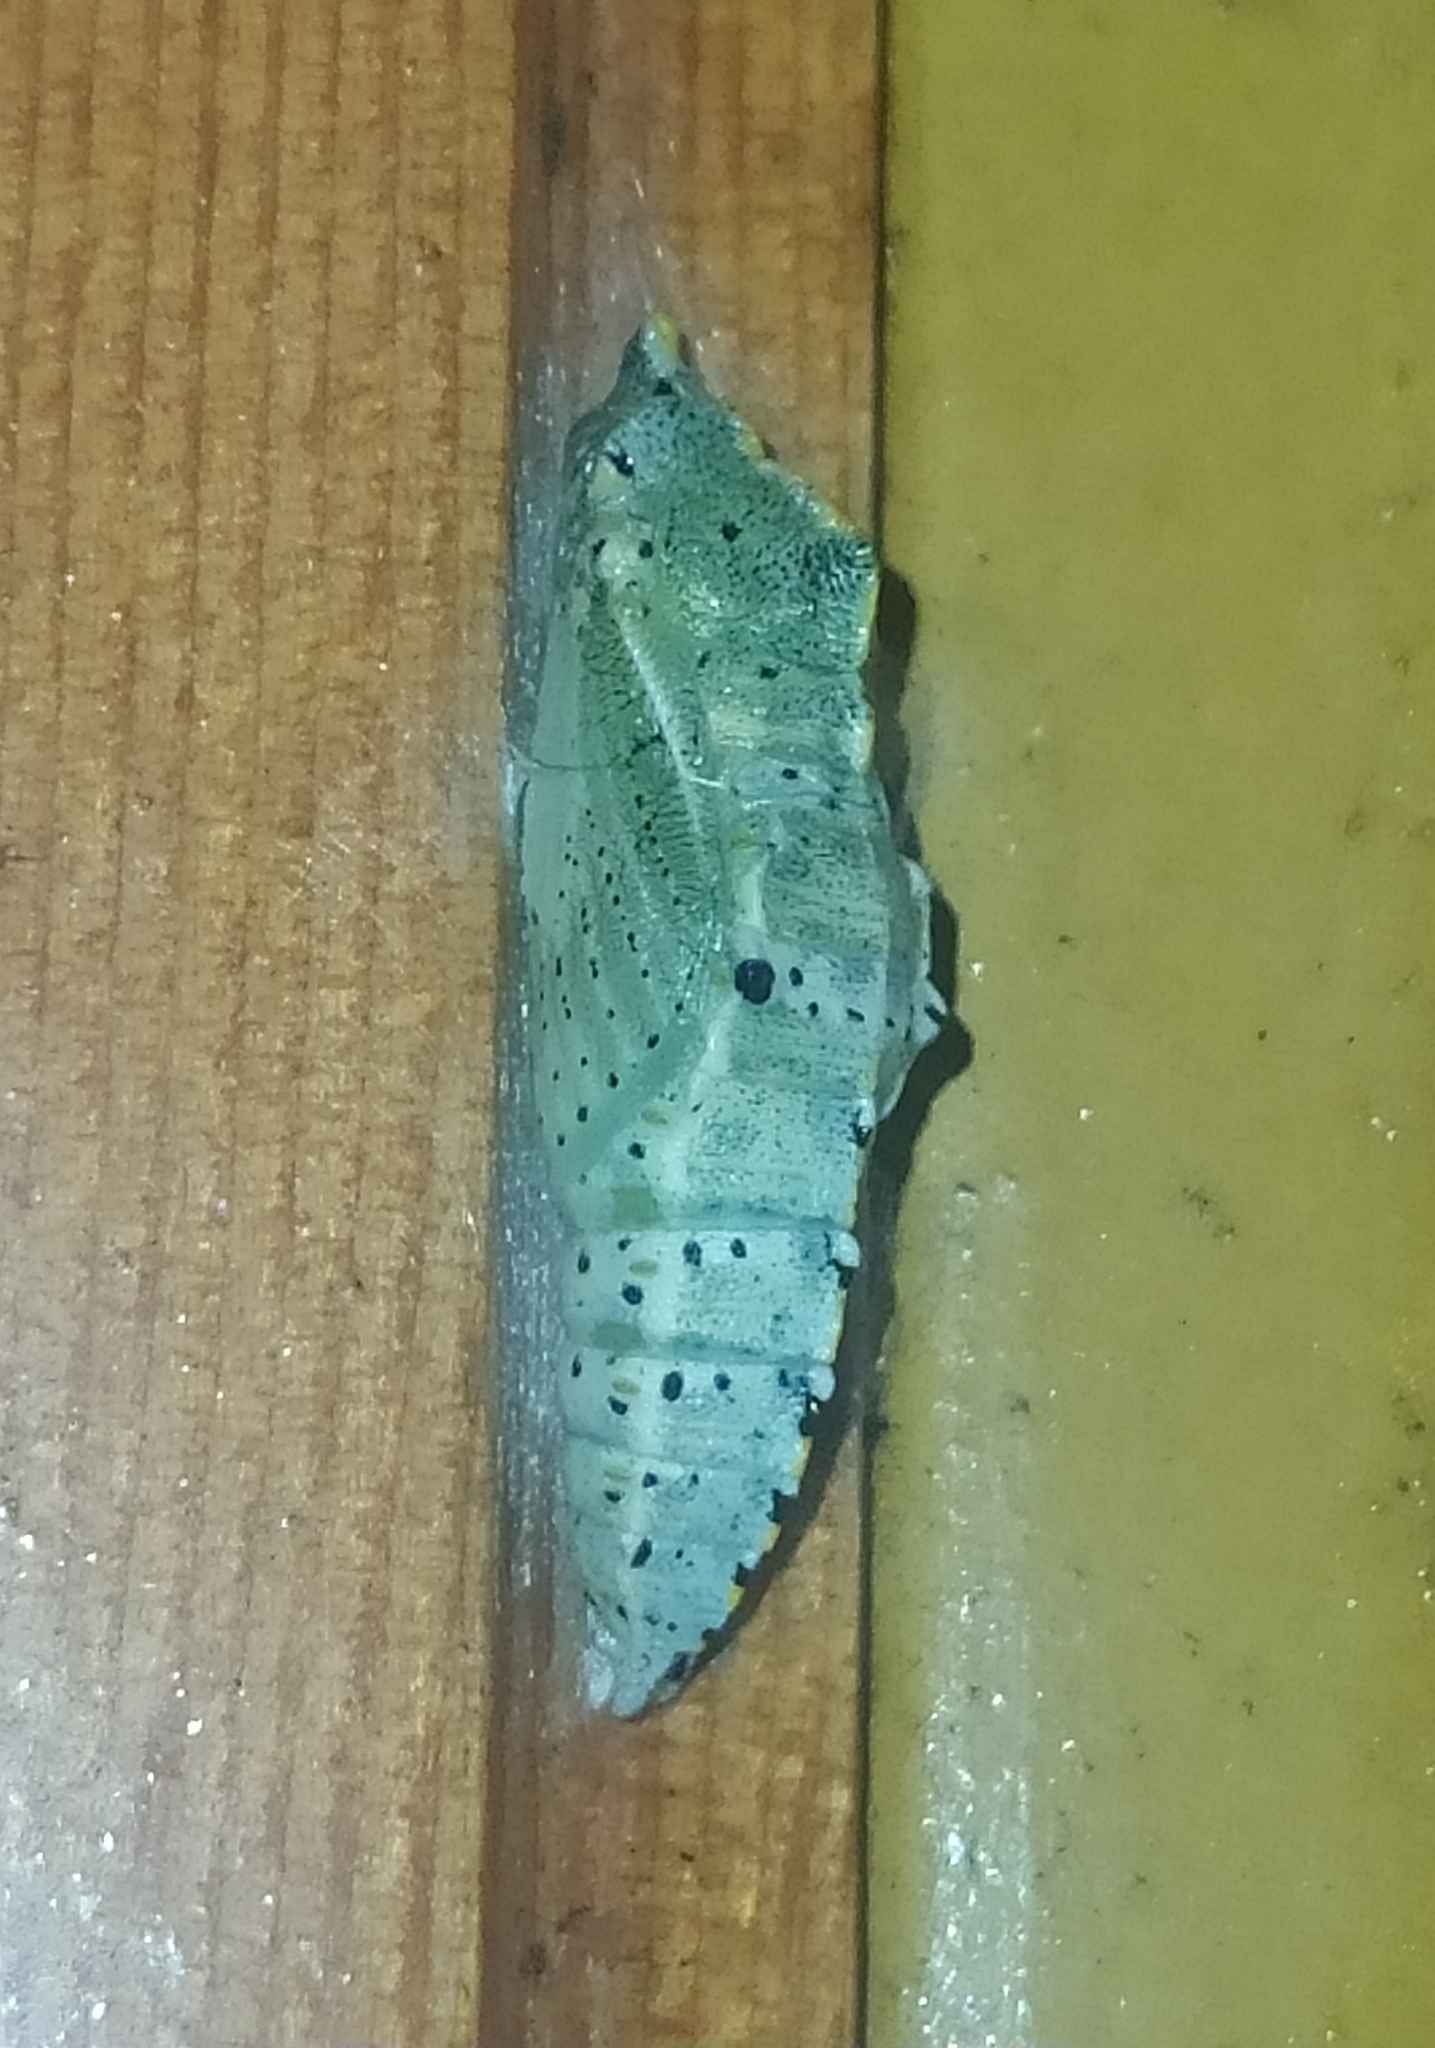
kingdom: Animalia
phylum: Arthropoda
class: Insecta
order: Lepidoptera
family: Pieridae
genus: Pieris
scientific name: Pieris brassicae
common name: Large white
